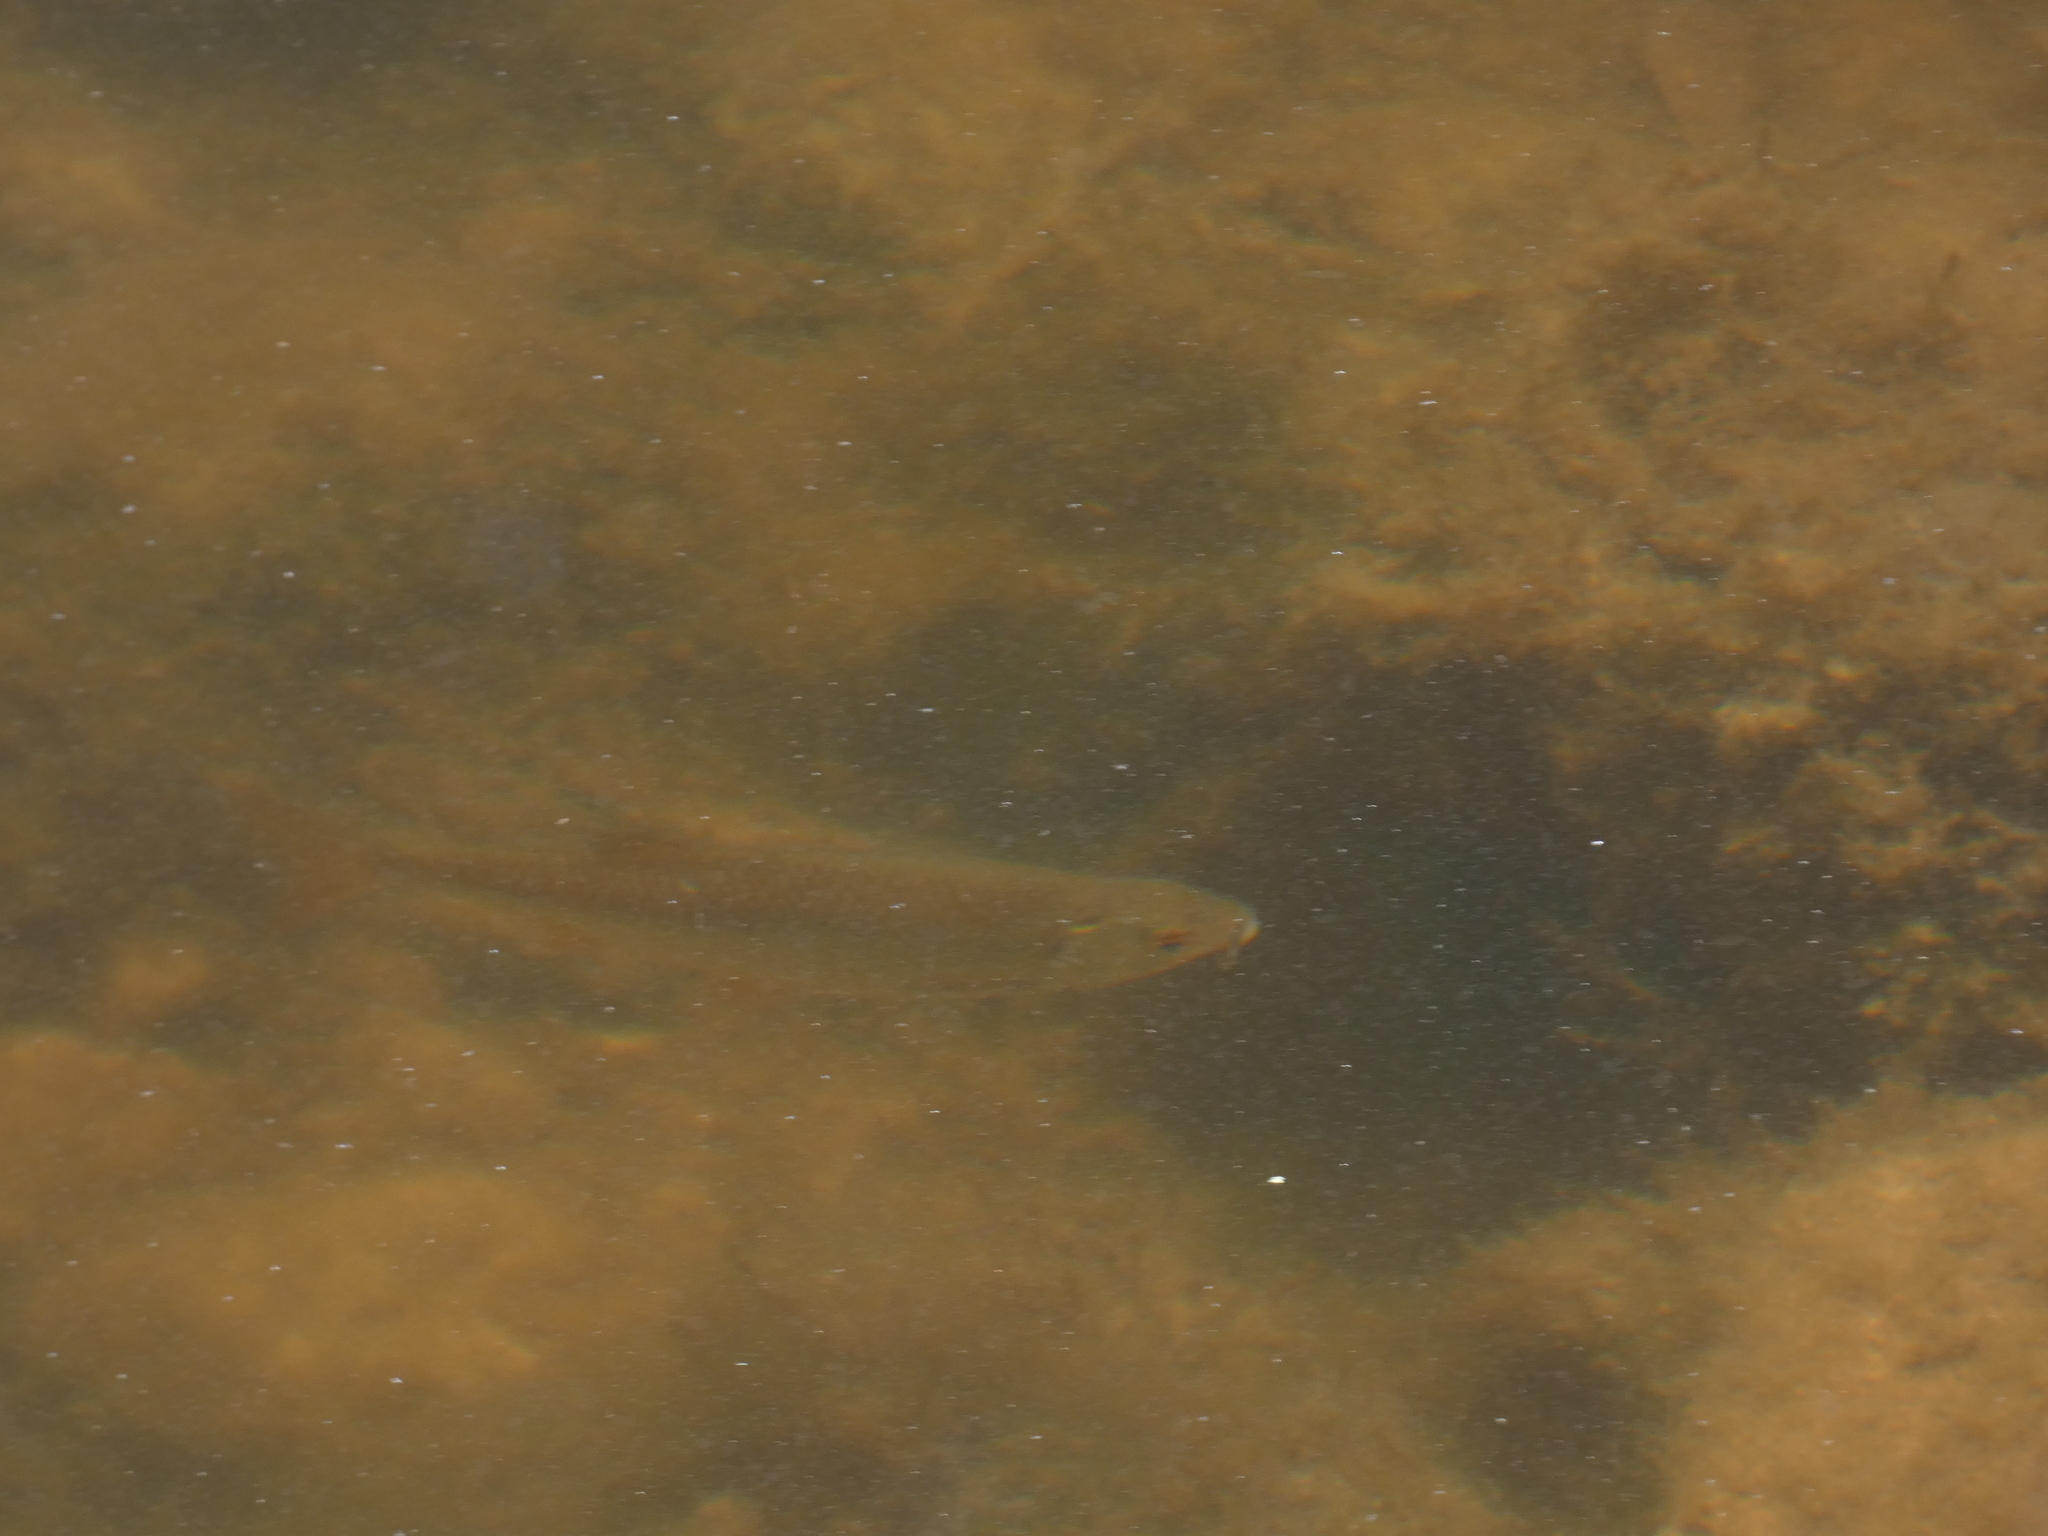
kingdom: Animalia
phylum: Chordata
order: Cypriniformes
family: Cyprinidae
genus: Scardinius
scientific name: Scardinius erythrophthalmus
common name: Rudd
